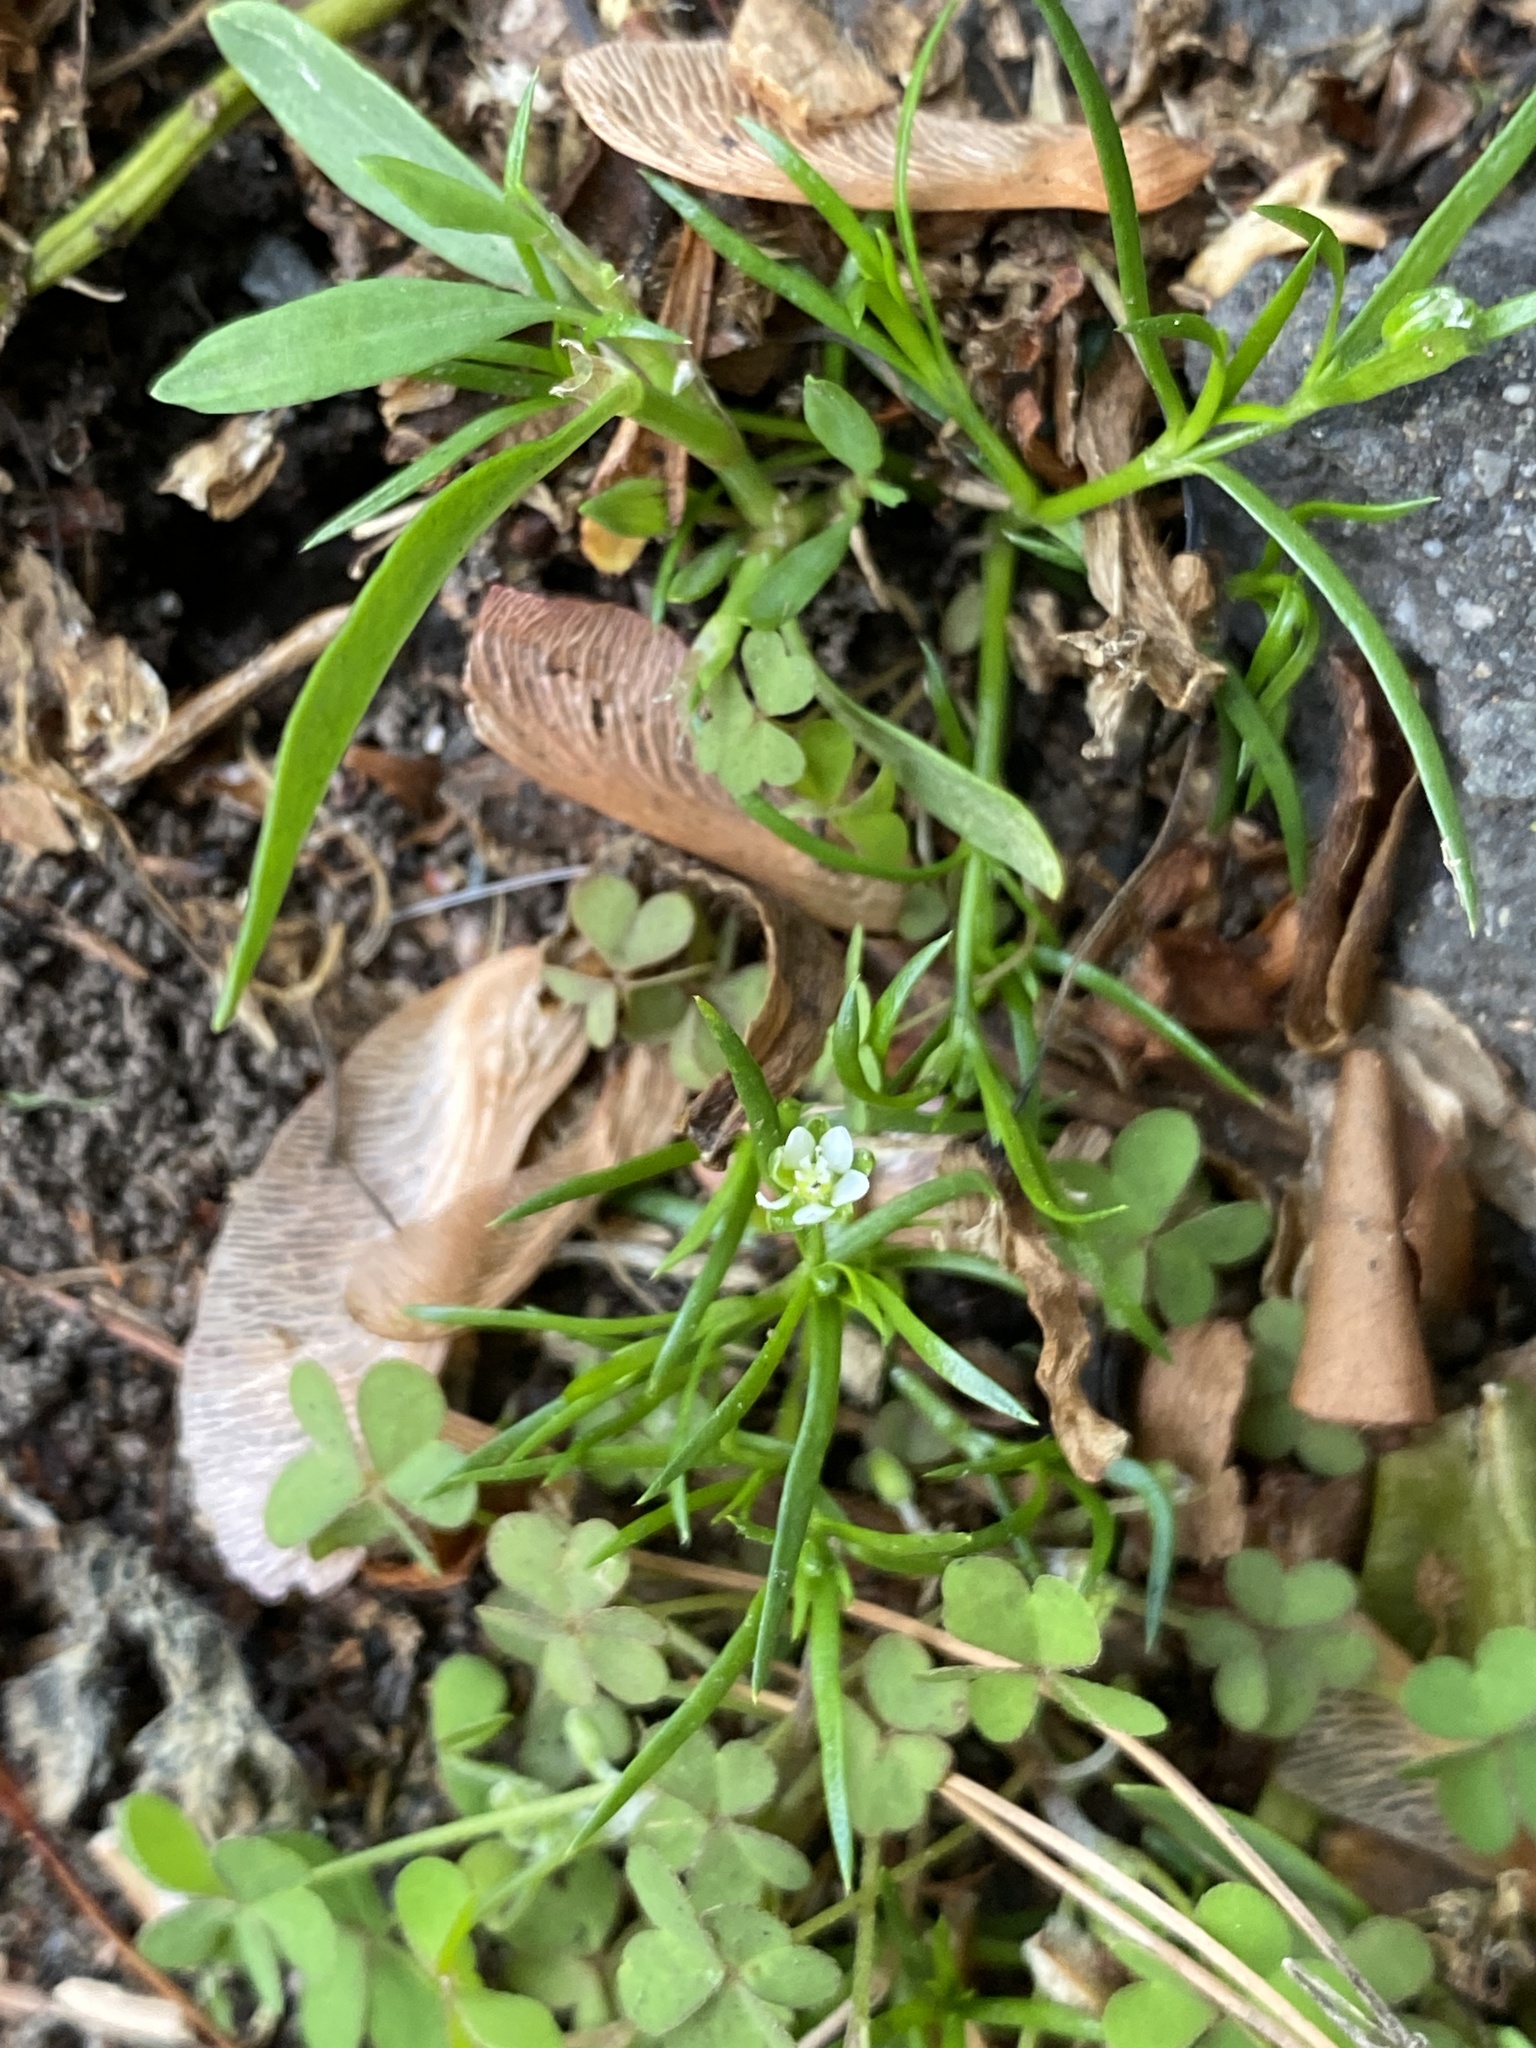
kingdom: Plantae
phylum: Tracheophyta
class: Magnoliopsida
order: Caryophyllales
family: Caryophyllaceae
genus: Sagina
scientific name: Sagina decumbens
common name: Decumbent pearlwort
